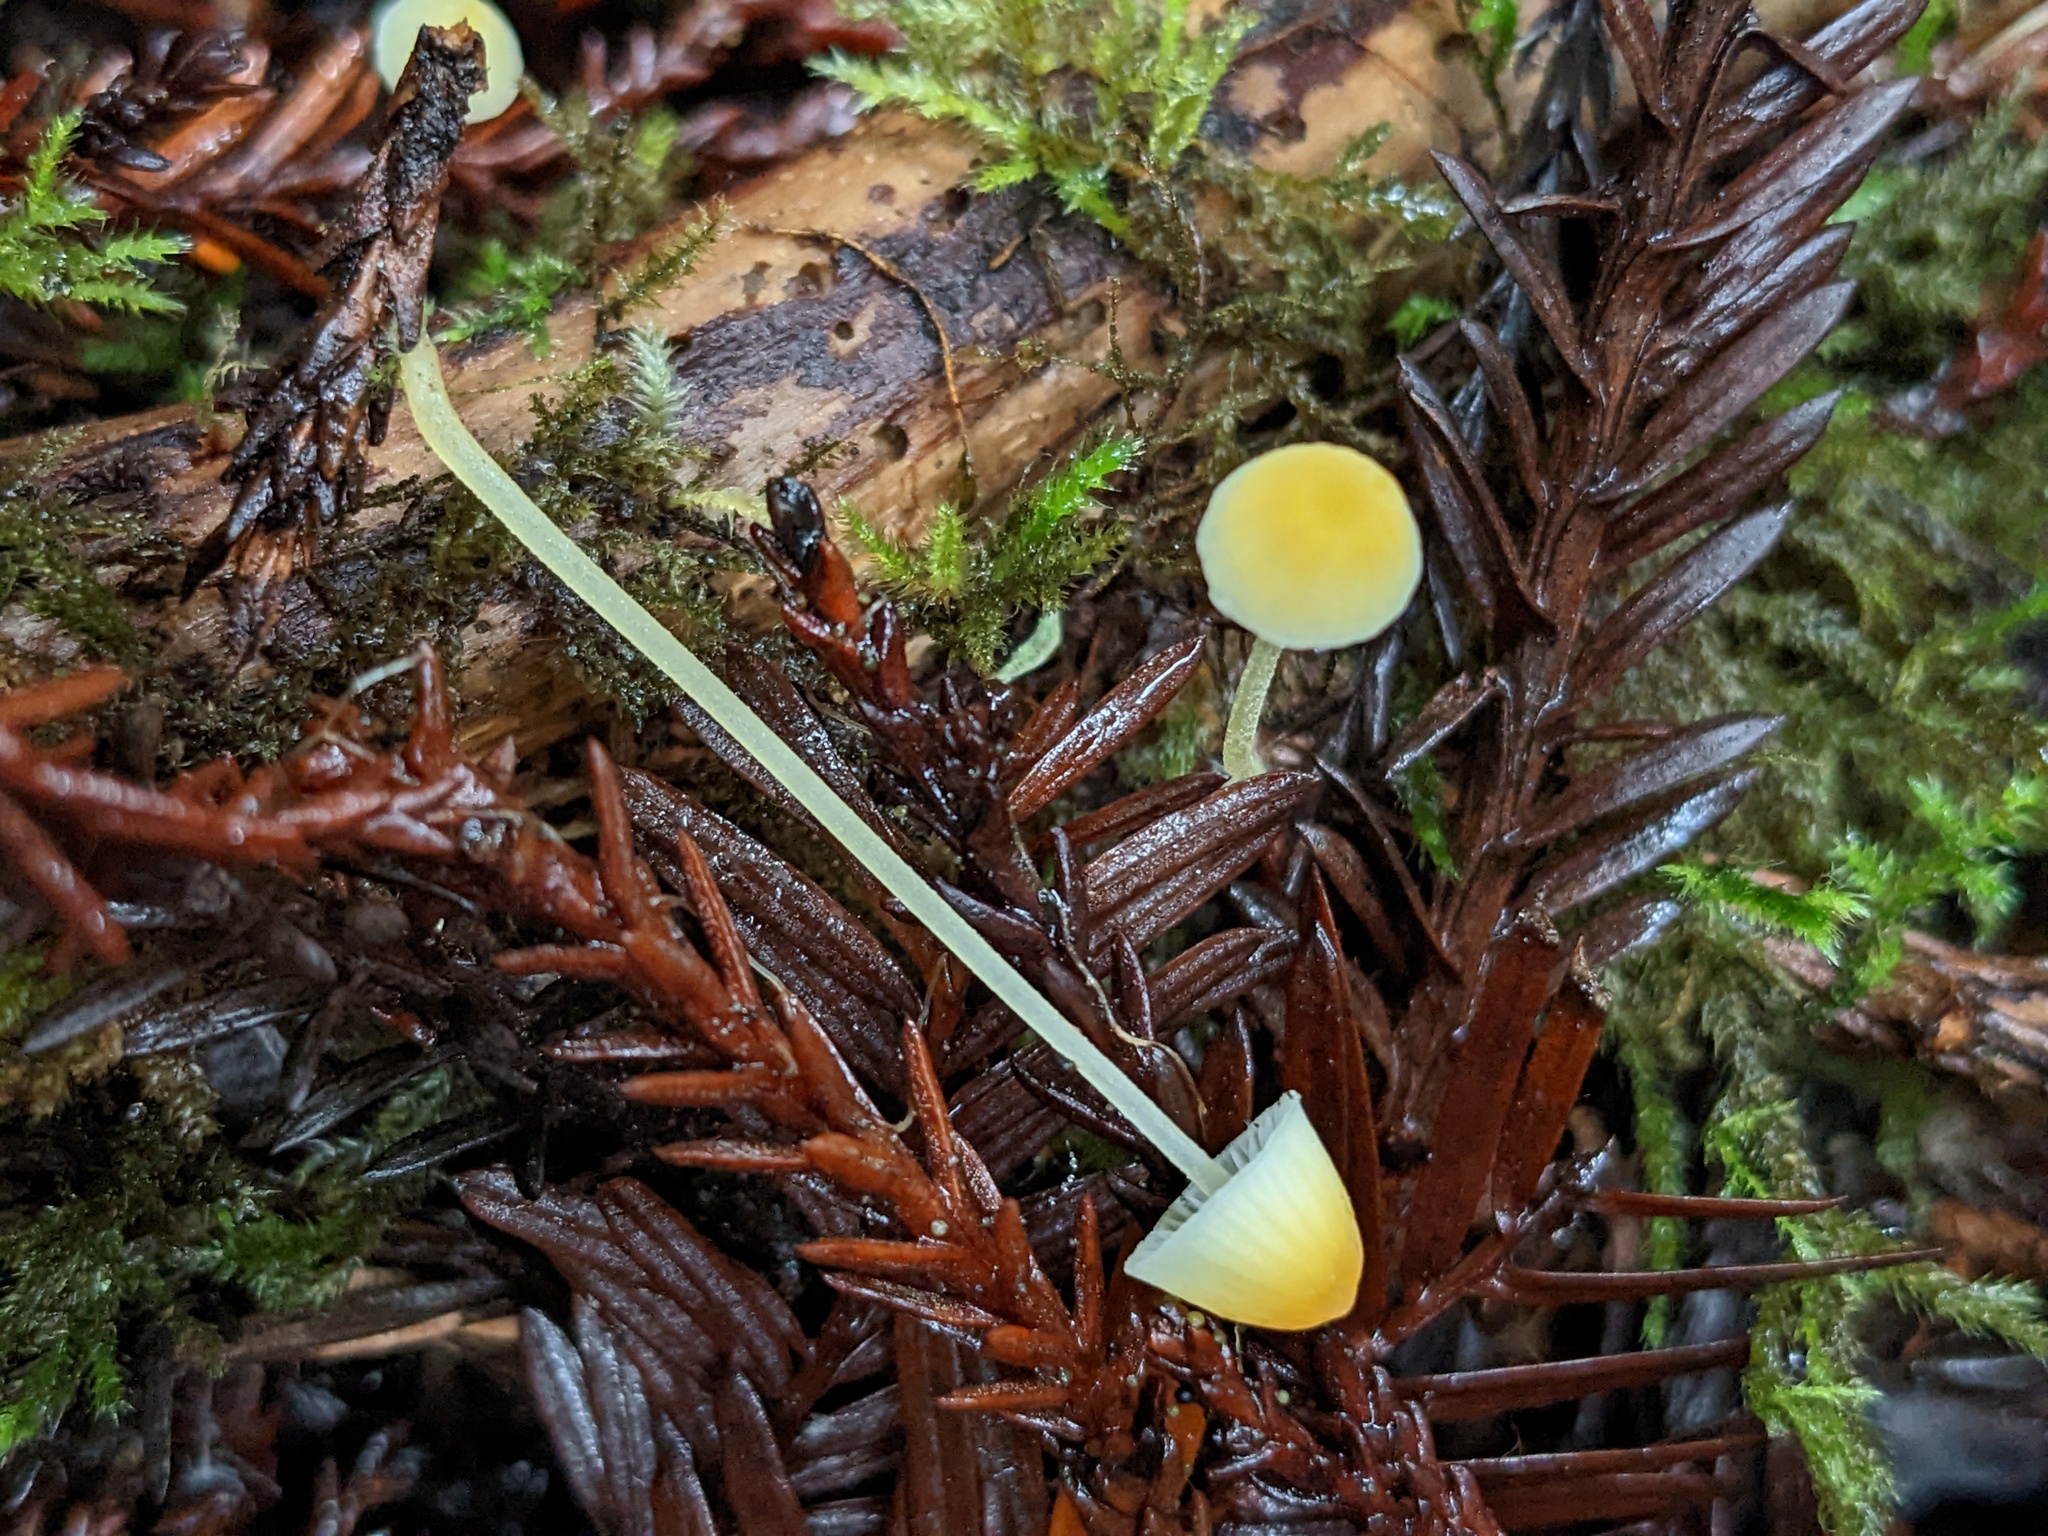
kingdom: Fungi
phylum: Basidiomycota
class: Agaricomycetes
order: Agaricales
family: Mycenaceae
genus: Atheniella
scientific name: Atheniella aurantiidisca
